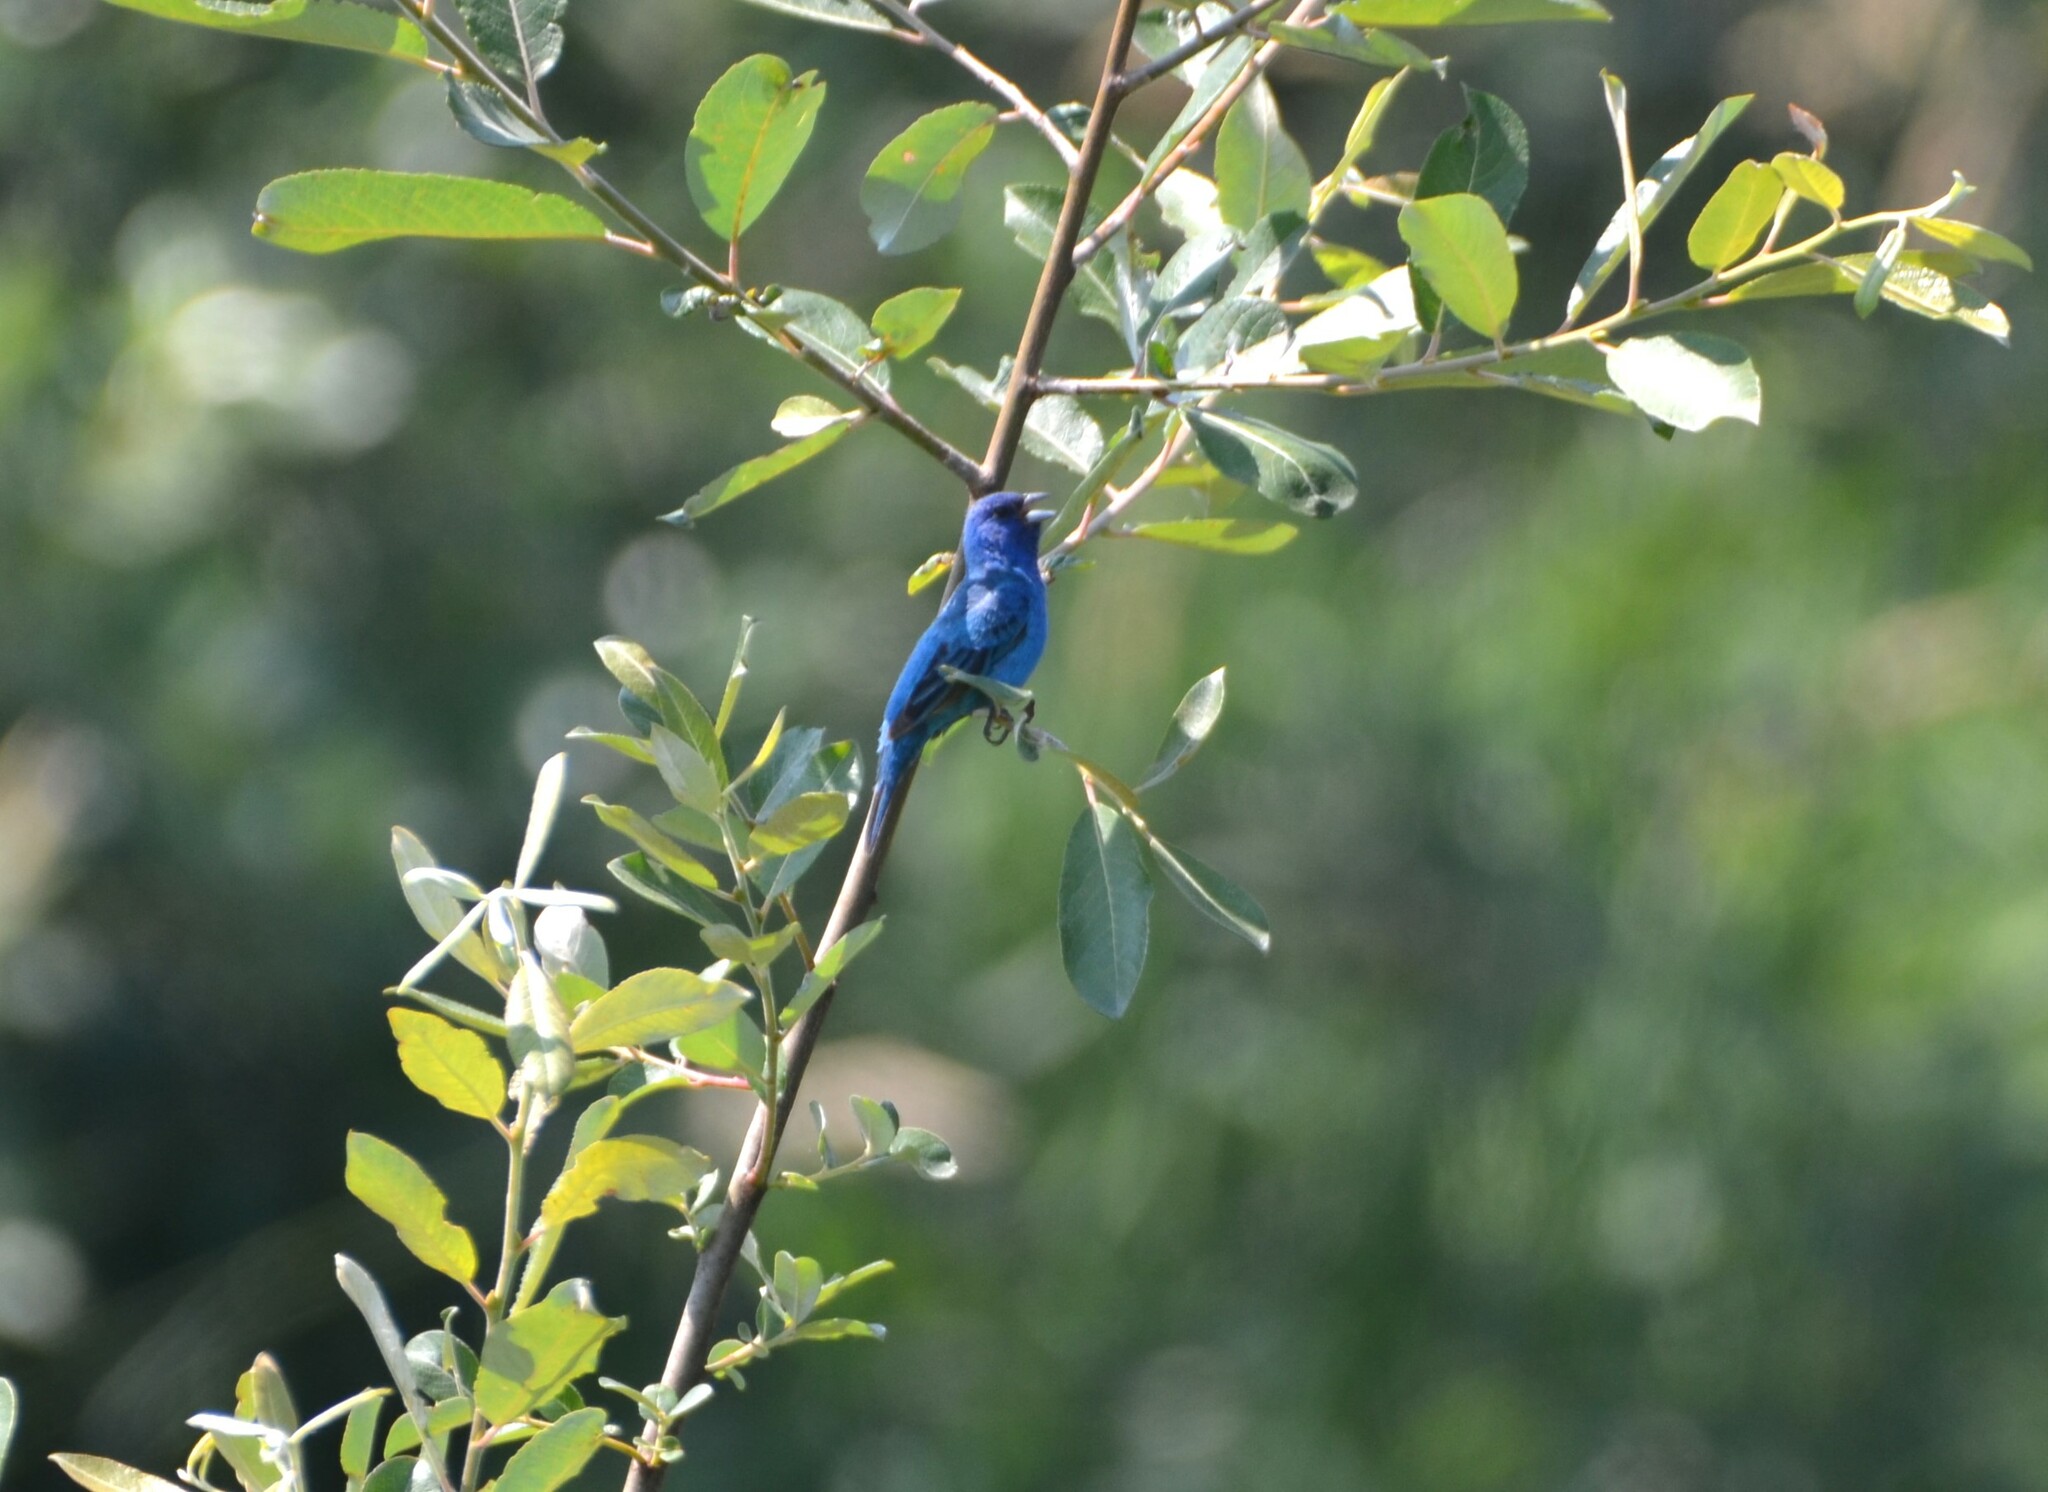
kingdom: Animalia
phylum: Chordata
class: Aves
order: Passeriformes
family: Cardinalidae
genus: Passerina
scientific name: Passerina cyanea
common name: Indigo bunting
